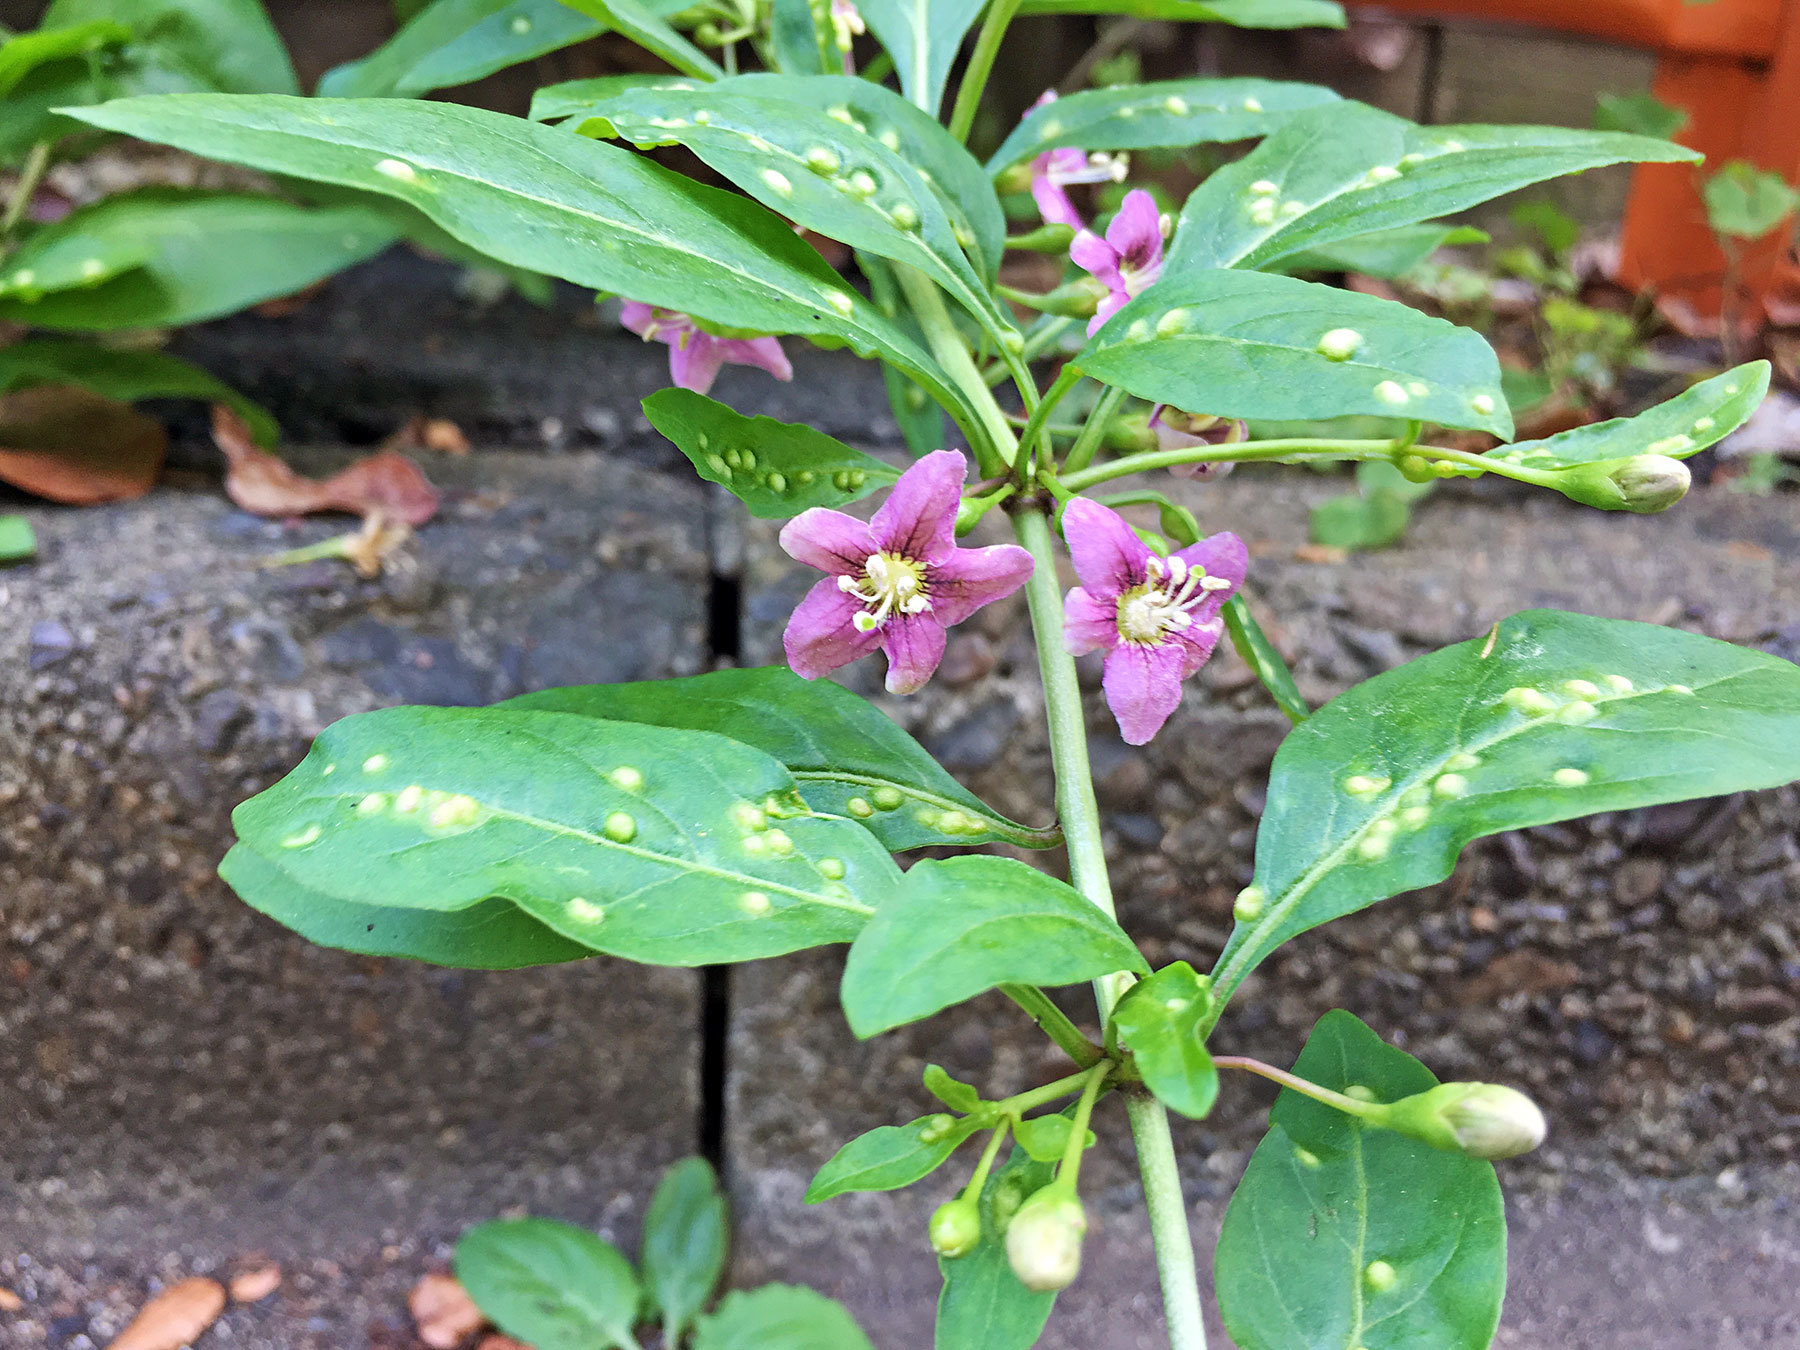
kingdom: Plantae
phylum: Tracheophyta
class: Magnoliopsida
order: Solanales
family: Solanaceae
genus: Lycium
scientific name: Lycium chinense
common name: Chinese teaplant
